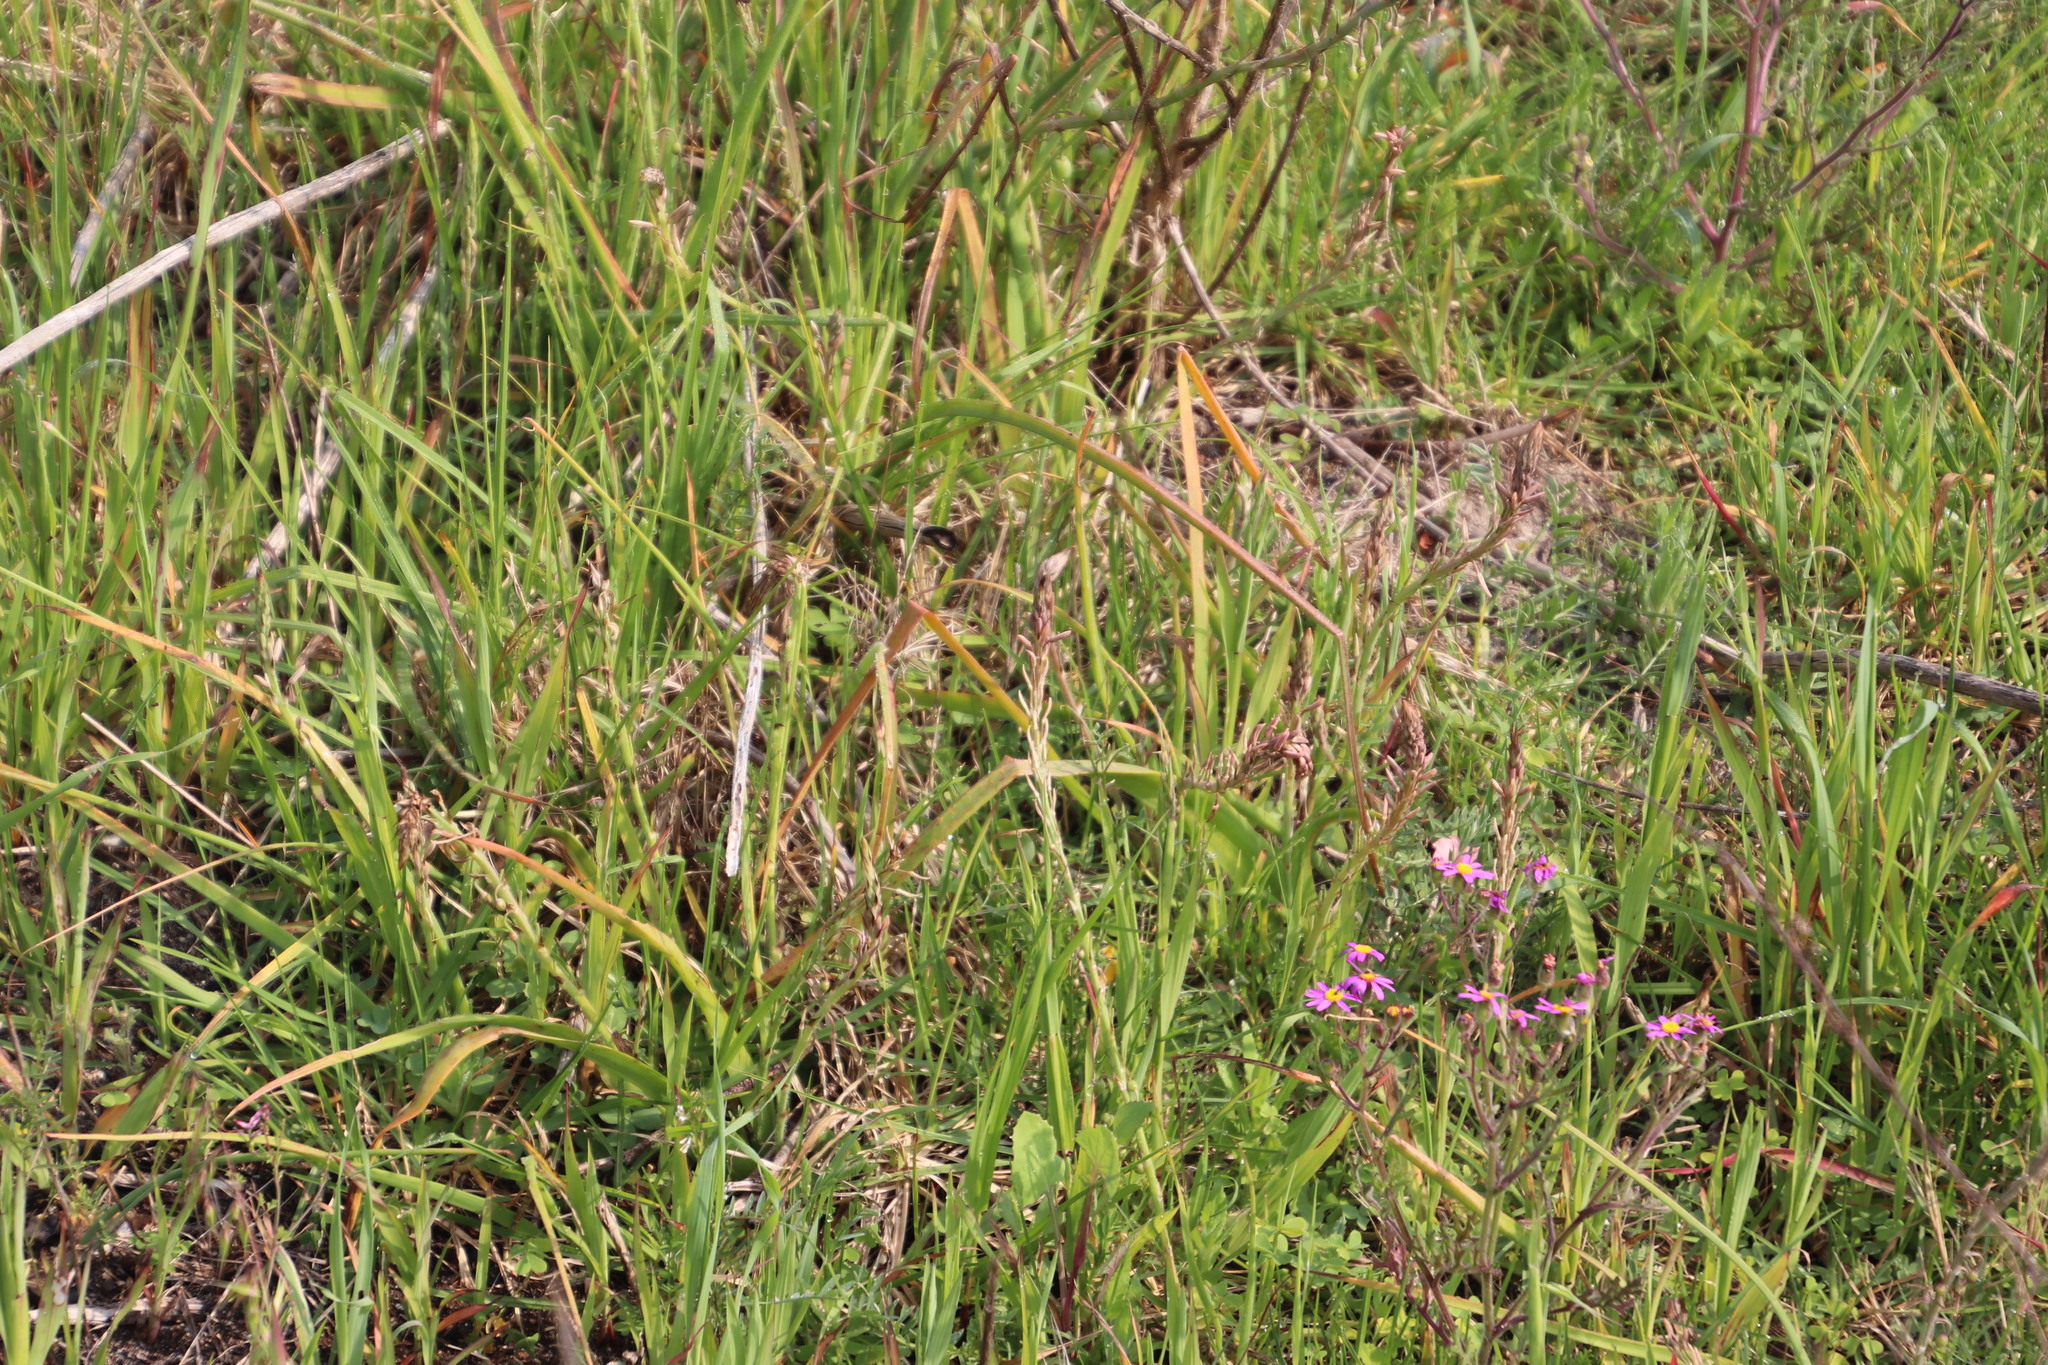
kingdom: Plantae
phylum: Tracheophyta
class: Liliopsida
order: Asparagales
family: Asphodelaceae
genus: Trachyandra
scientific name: Trachyandra ciliata
